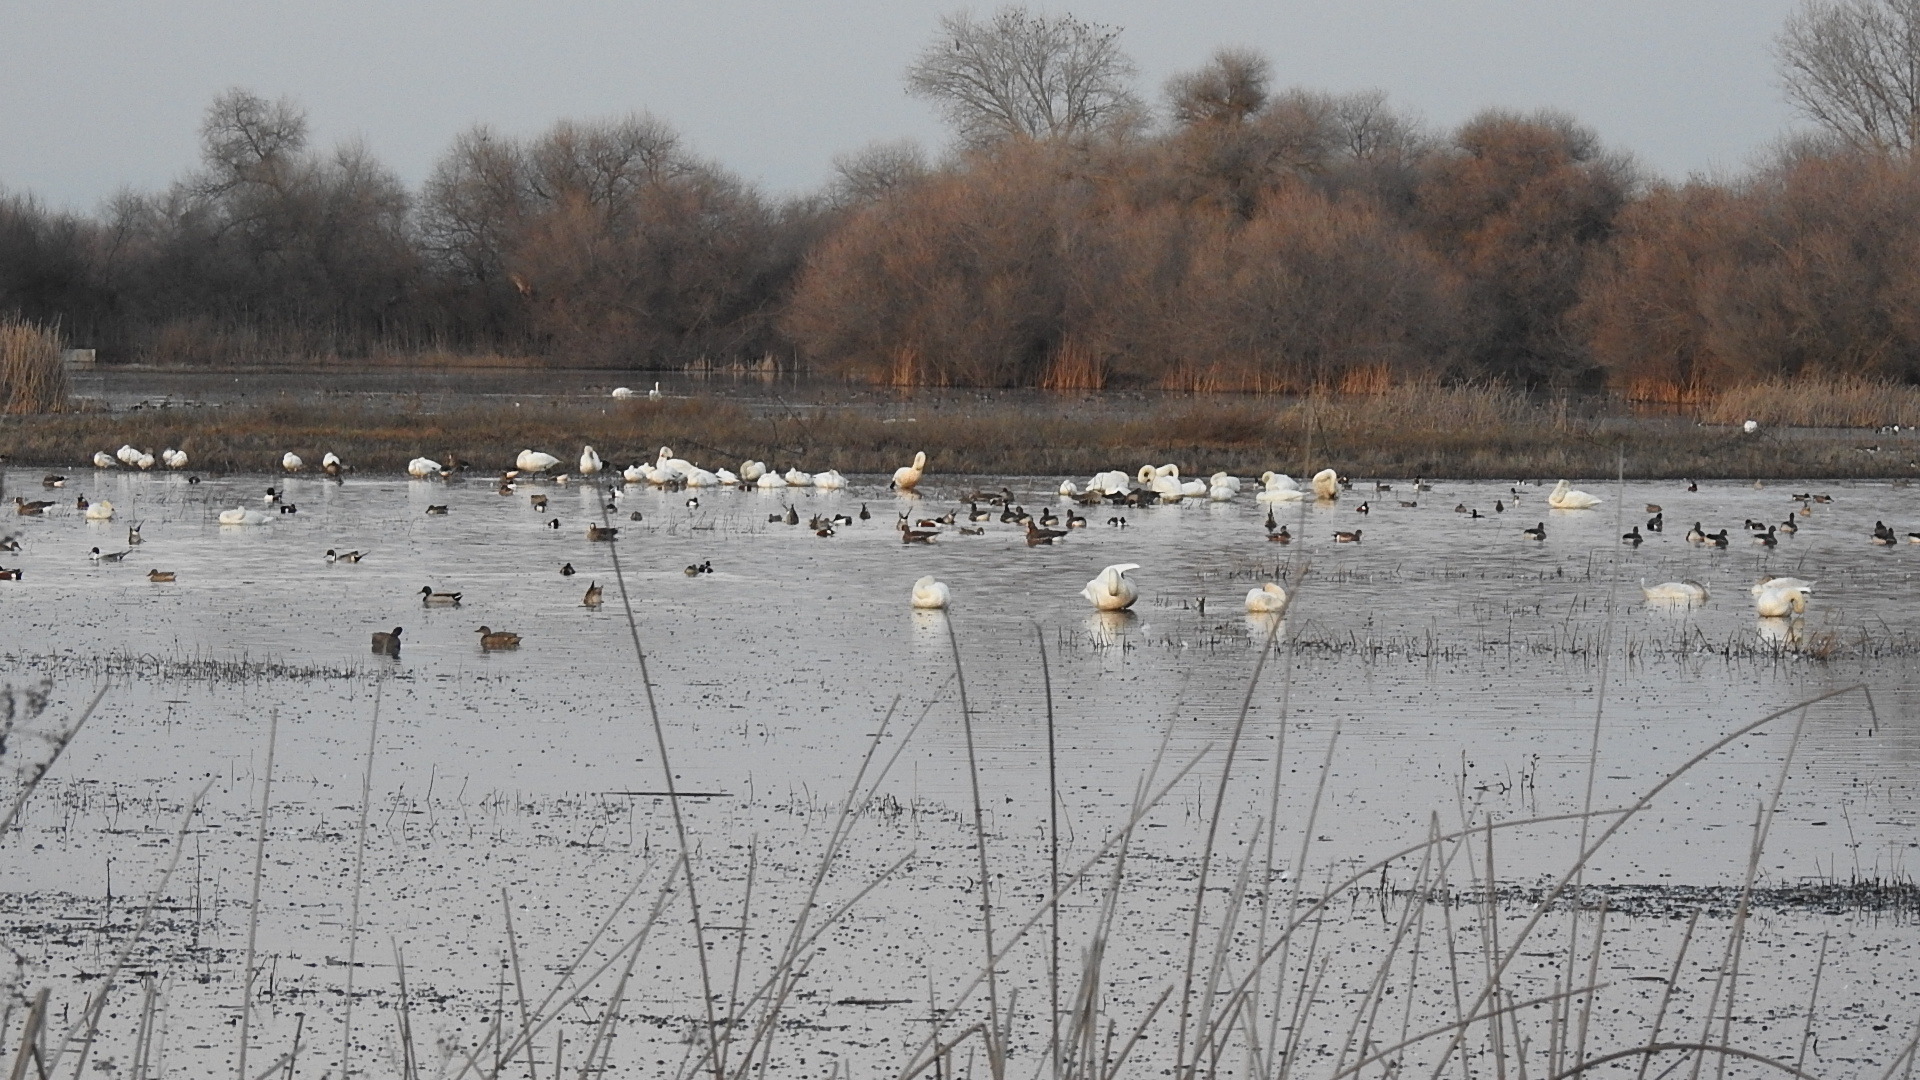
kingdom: Animalia
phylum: Chordata
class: Aves
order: Anseriformes
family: Anatidae
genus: Cygnus
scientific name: Cygnus columbianus
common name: Tundra swan
